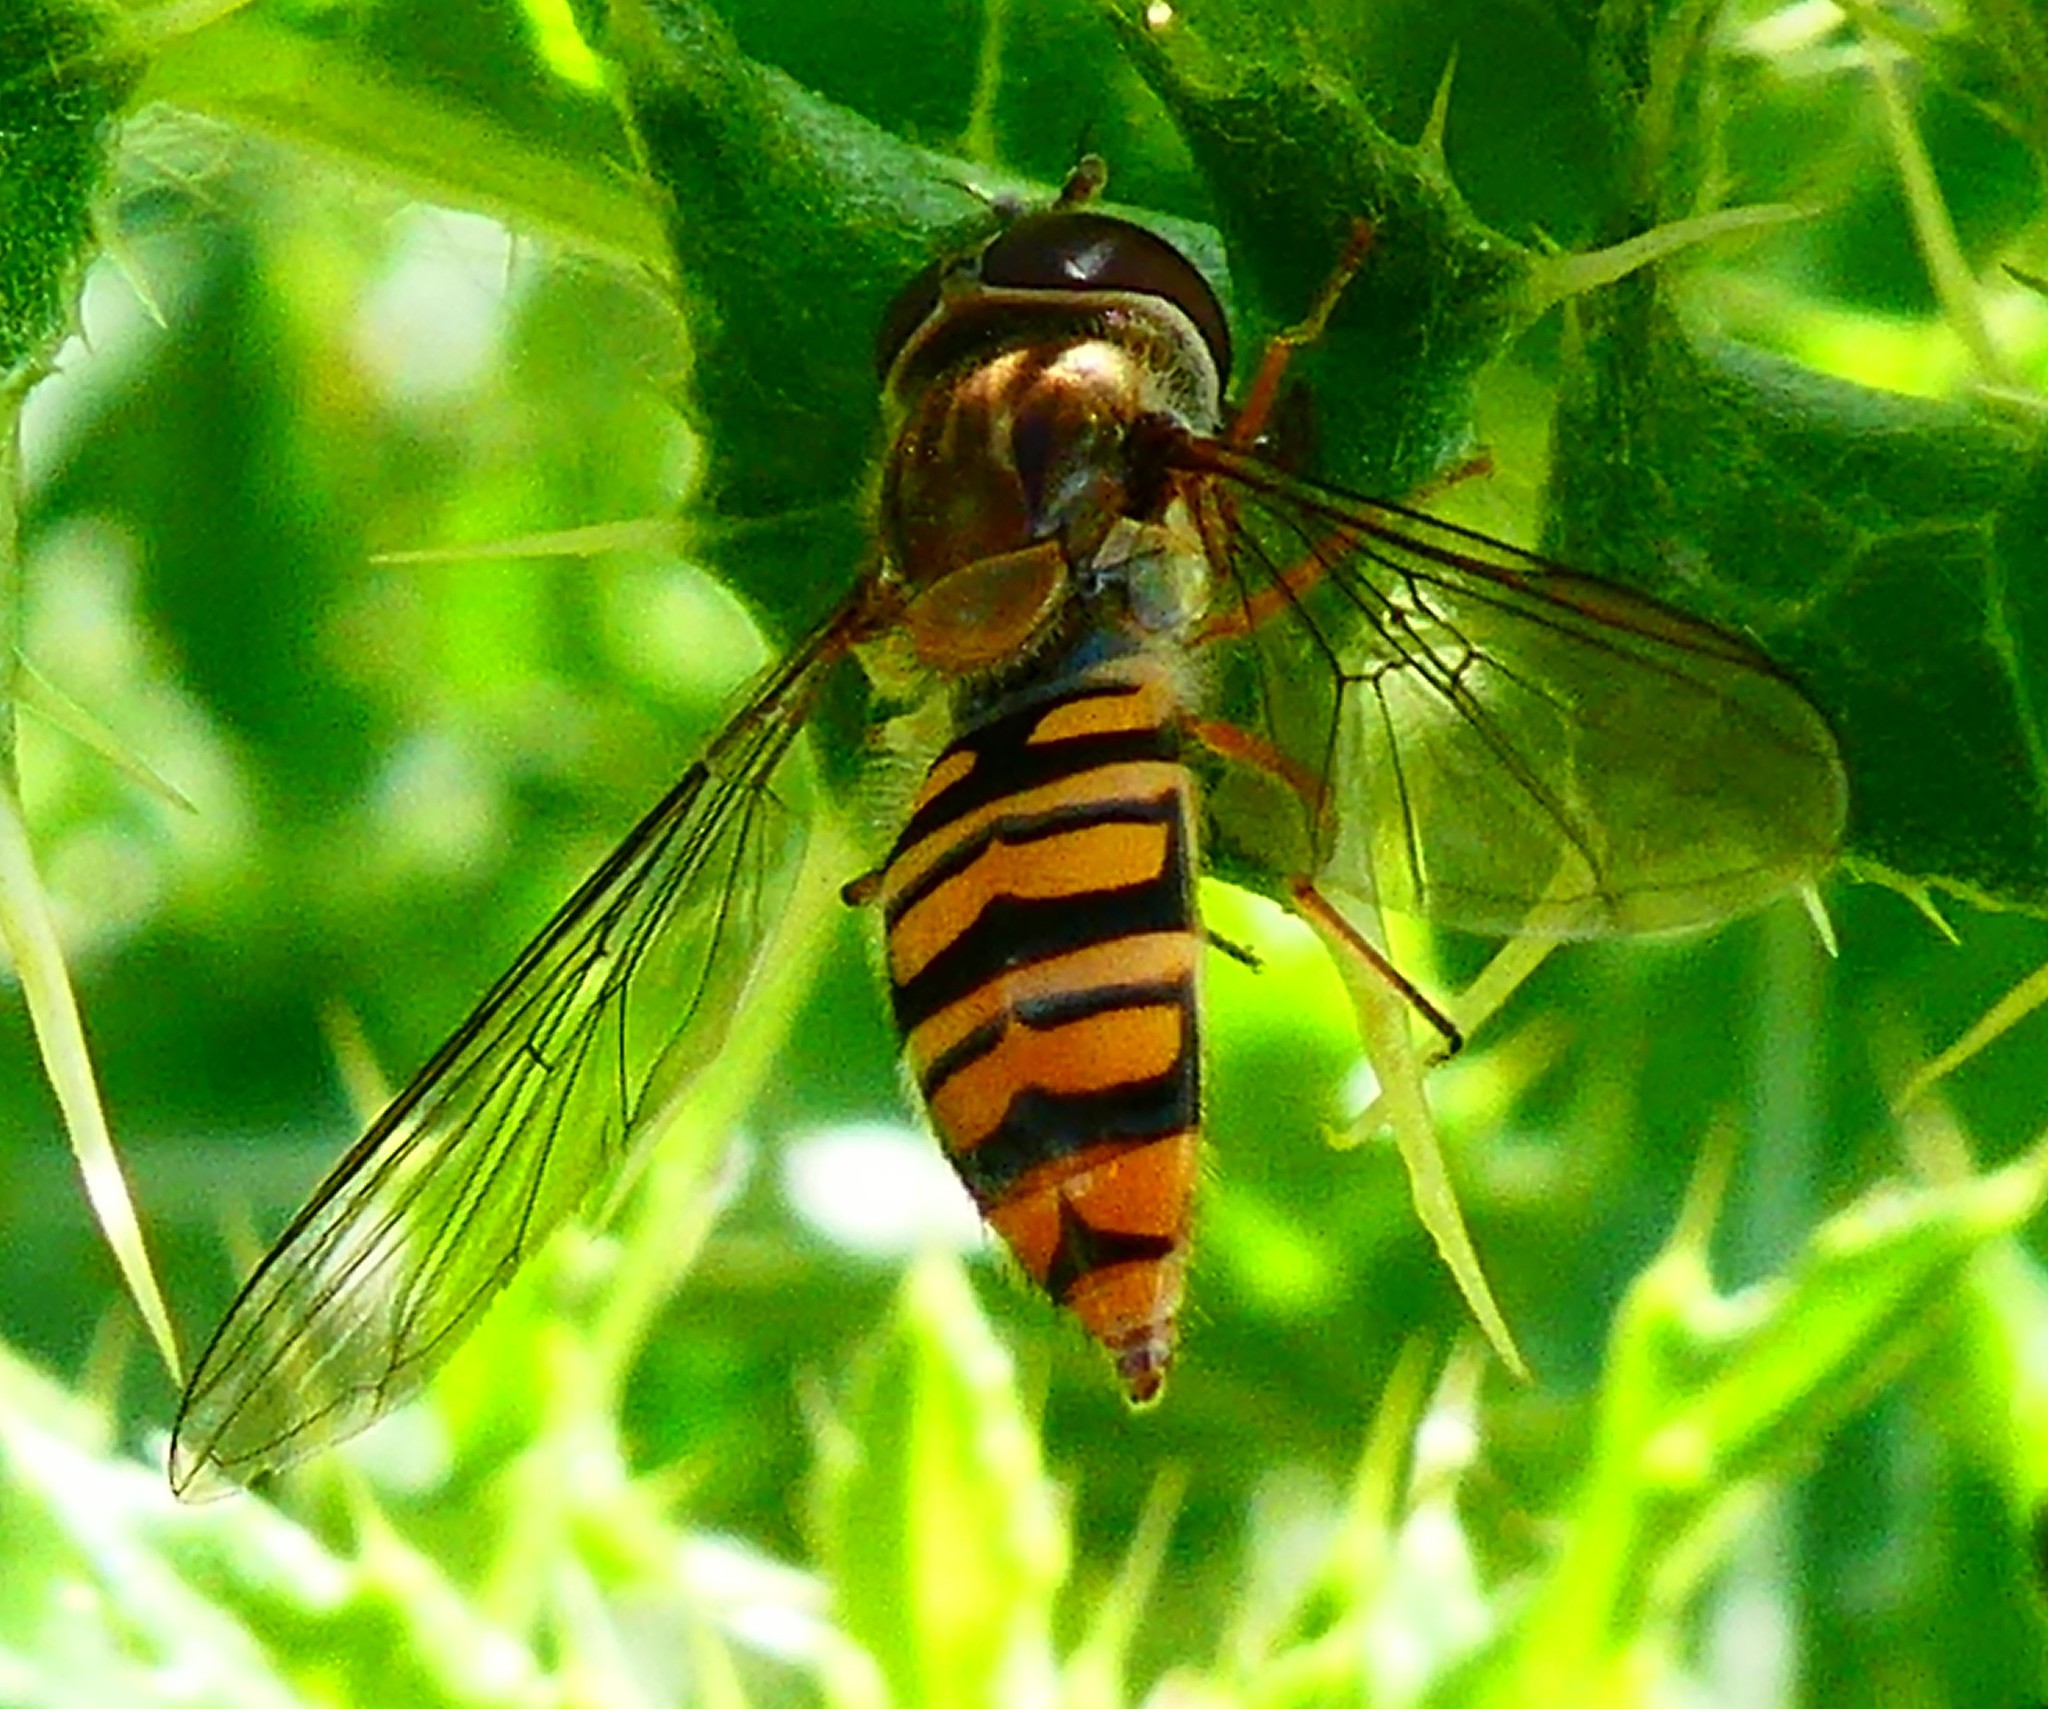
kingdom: Animalia
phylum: Arthropoda
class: Insecta
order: Diptera
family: Syrphidae
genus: Episyrphus
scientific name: Episyrphus balteatus
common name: Marmalade hoverfly
